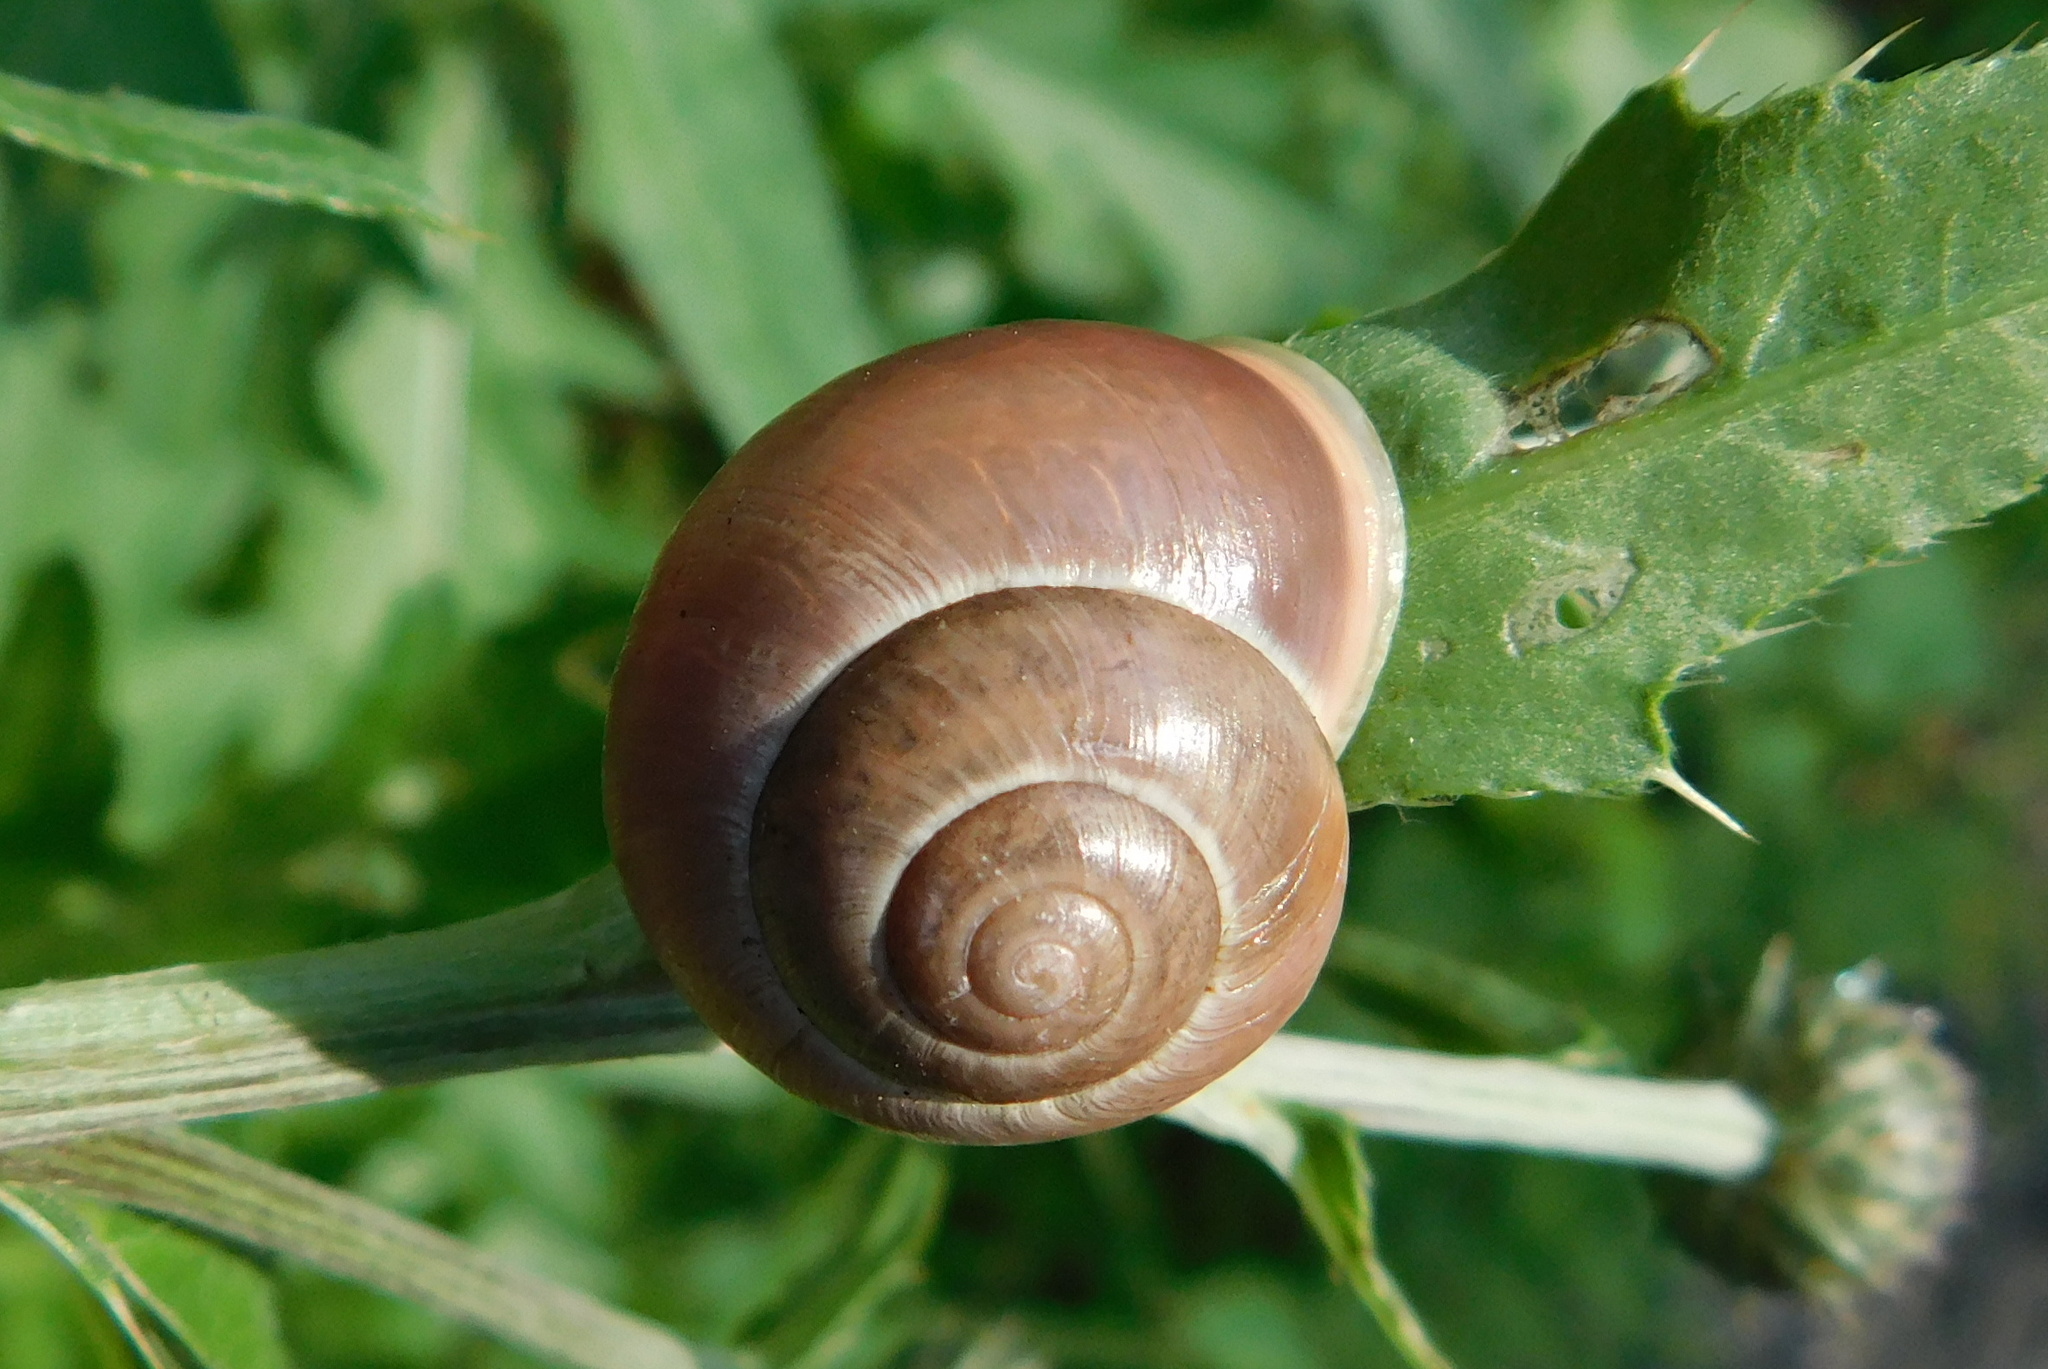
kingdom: Animalia
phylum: Mollusca
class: Gastropoda
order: Stylommatophora
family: Helicidae
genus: Cepaea
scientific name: Cepaea hortensis
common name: White-lip gardensnail
